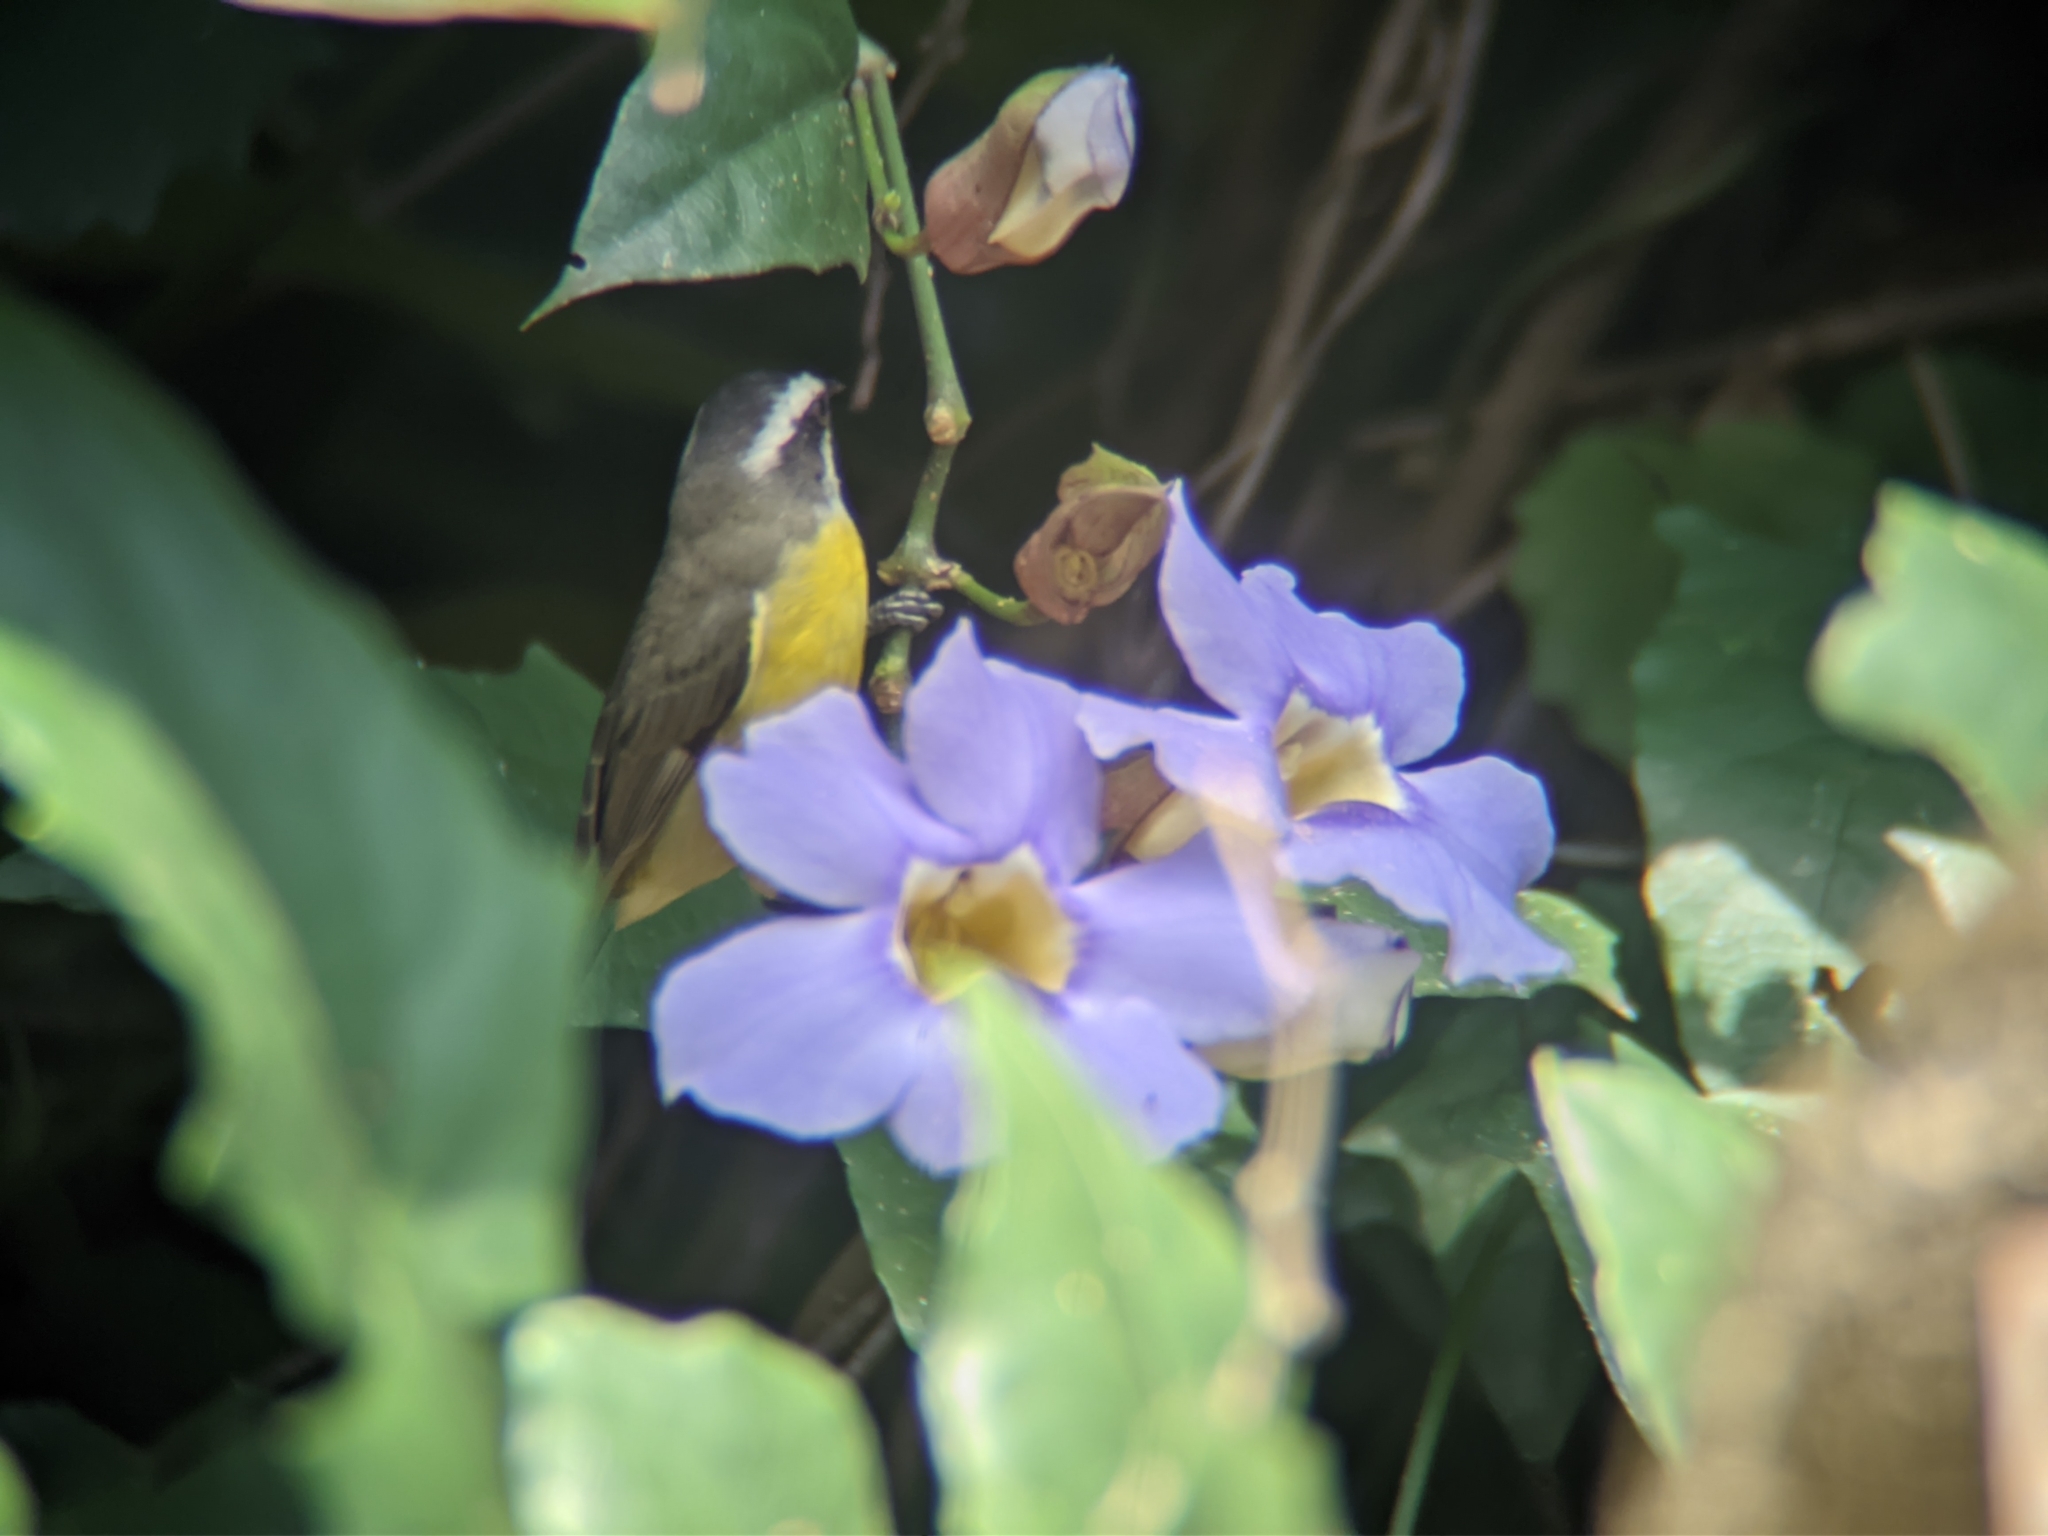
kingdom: Animalia
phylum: Chordata
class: Aves
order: Passeriformes
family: Thraupidae
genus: Coereba
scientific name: Coereba flaveola
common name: Bananaquit
